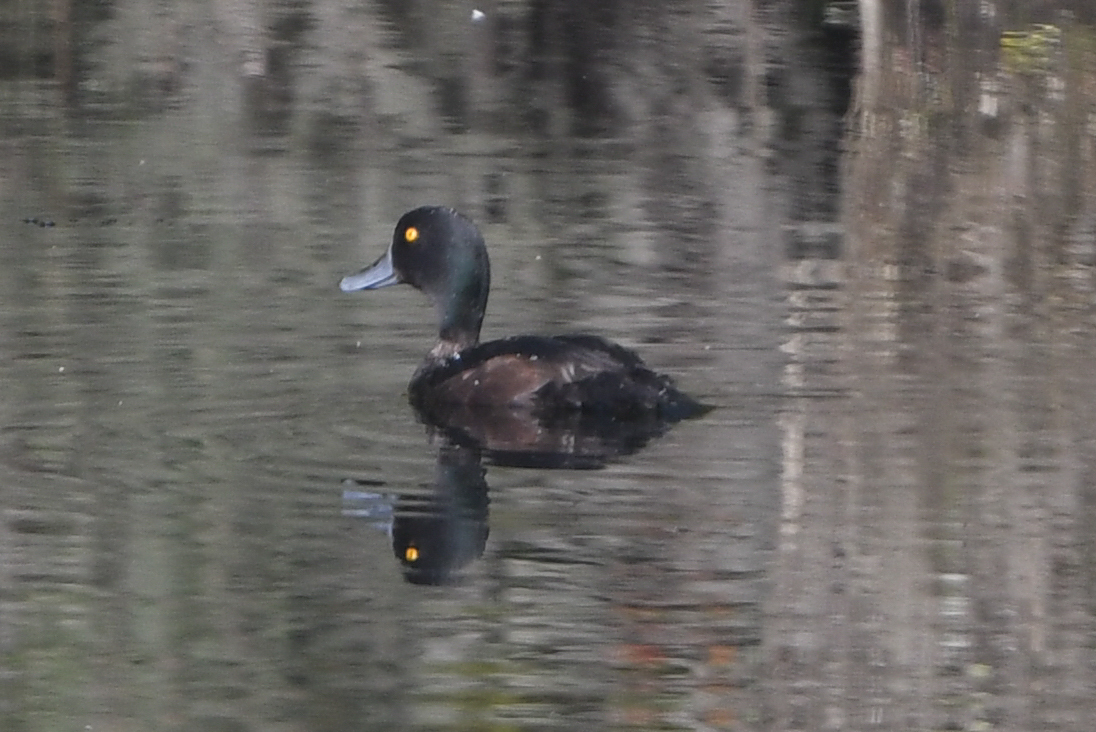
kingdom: Animalia
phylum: Chordata
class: Aves
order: Anseriformes
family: Anatidae
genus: Aythya
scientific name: Aythya novaeseelandiae
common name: New zealand scaup
